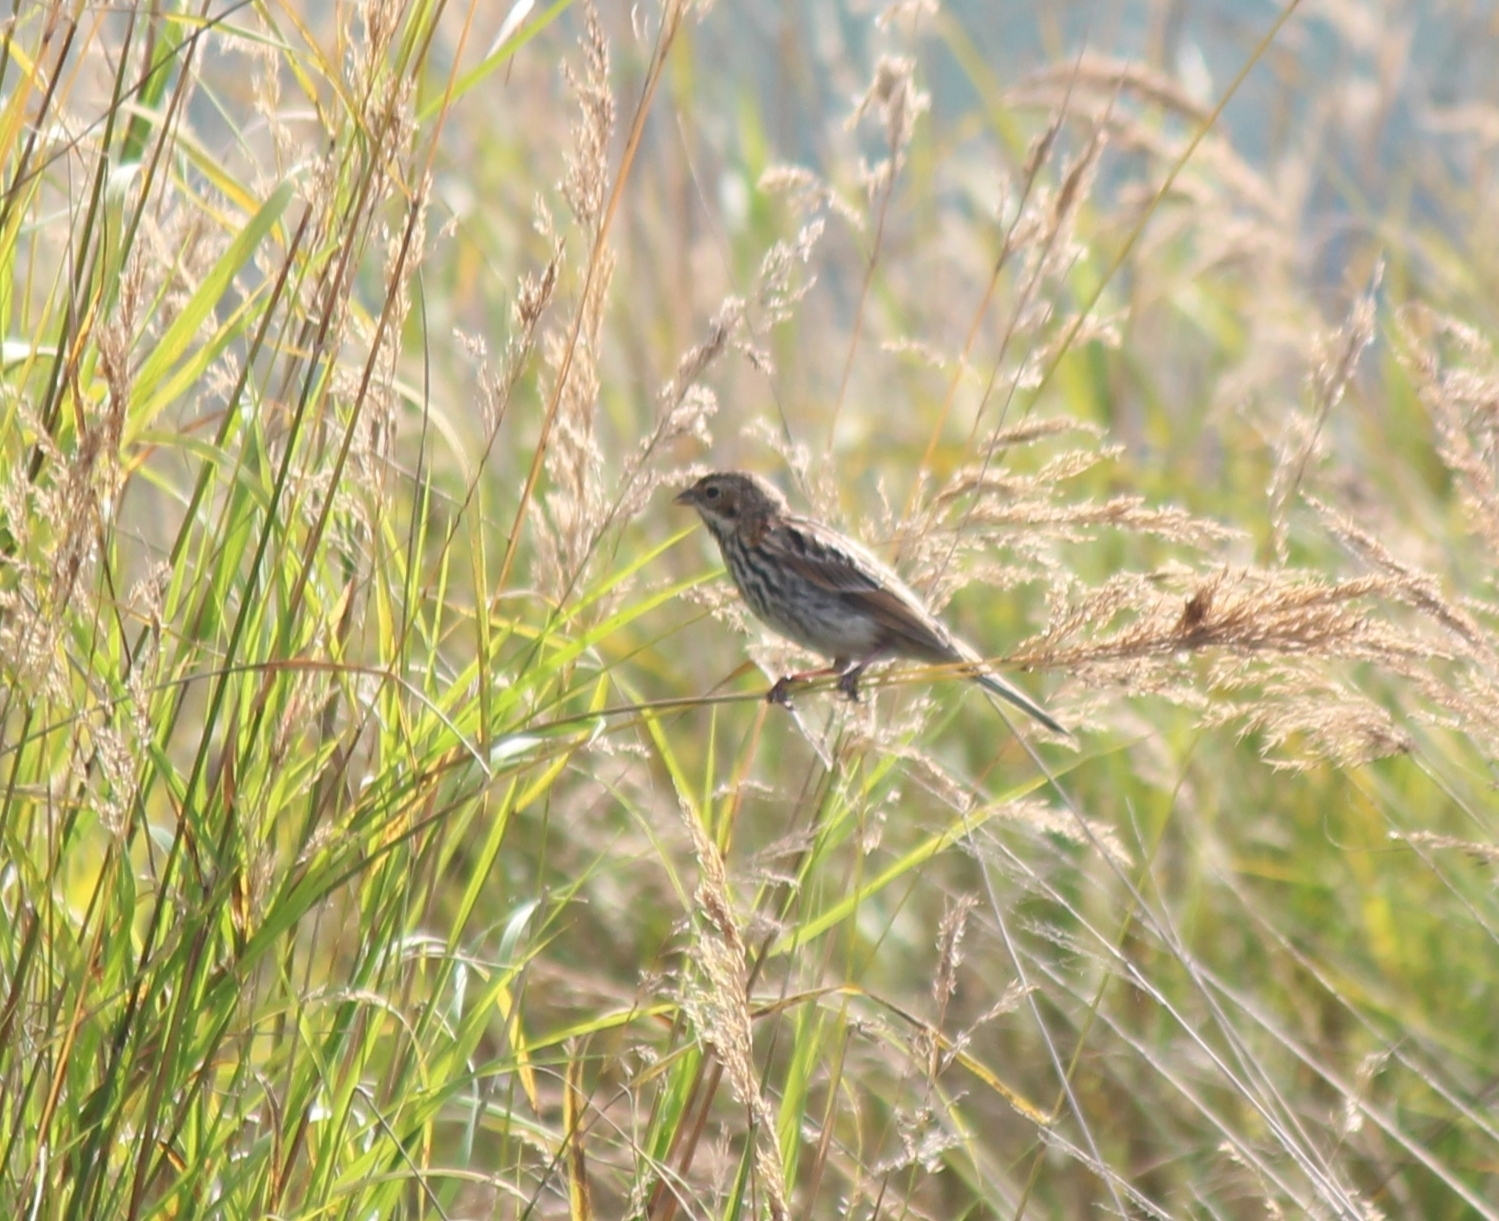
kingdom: Animalia
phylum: Chordata
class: Aves
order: Passeriformes
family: Emberizidae
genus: Emberiza
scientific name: Emberiza schoeniclus
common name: Reed bunting
